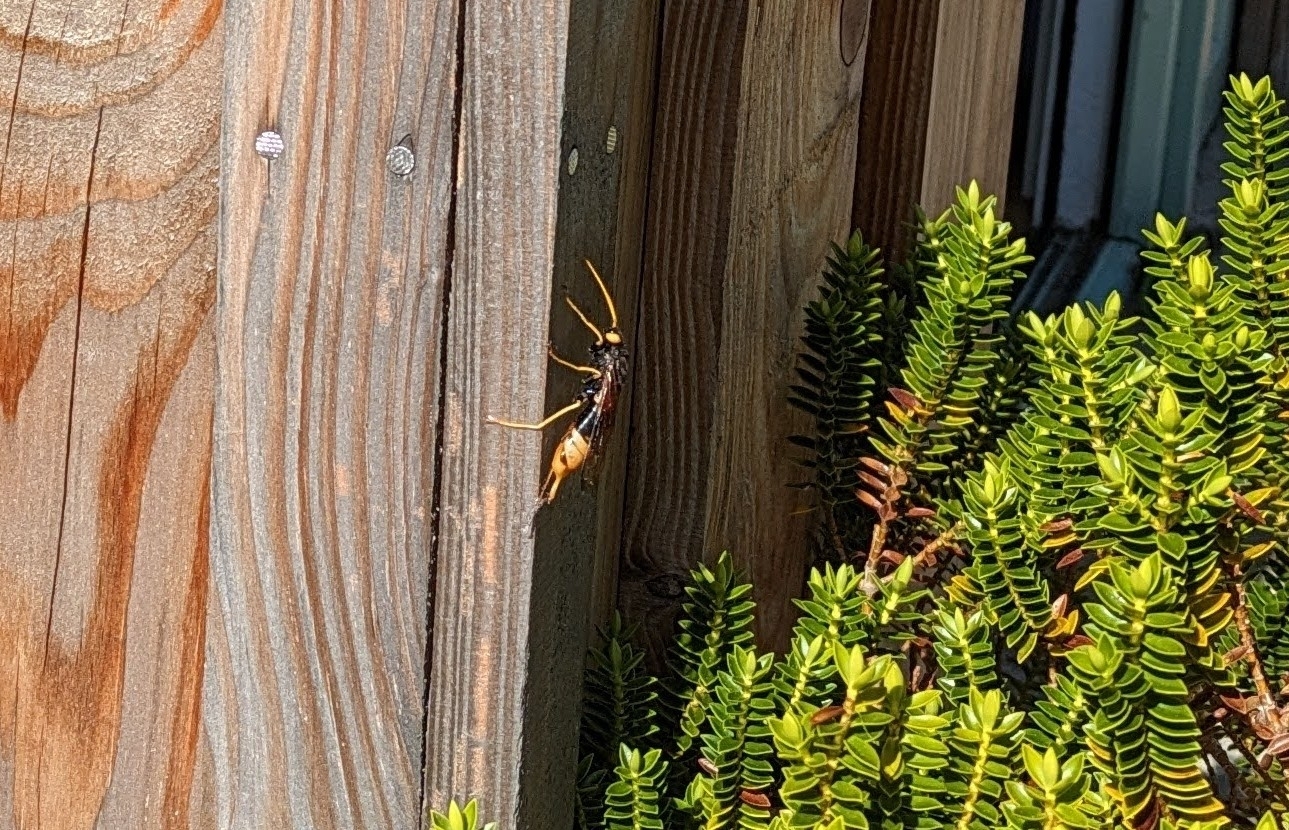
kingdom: Animalia
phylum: Arthropoda
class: Insecta
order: Hymenoptera
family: Siricidae
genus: Urocerus
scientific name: Urocerus gigas
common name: Giant woodwasp
